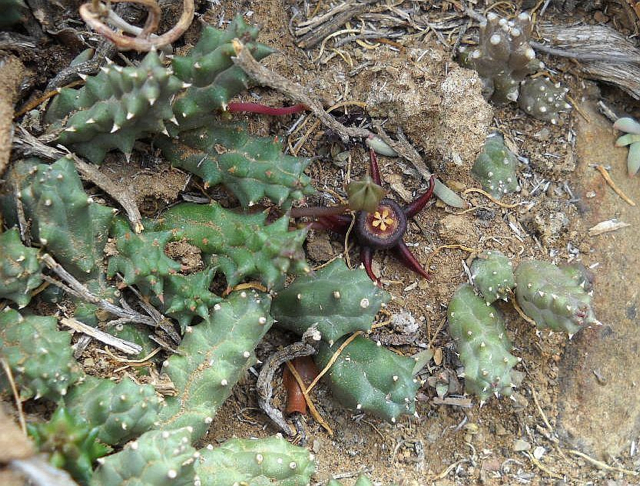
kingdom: Plantae
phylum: Tracheophyta
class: Magnoliopsida
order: Gentianales
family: Apocynaceae
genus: Ceropegia
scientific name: Ceropegia caespitosa
